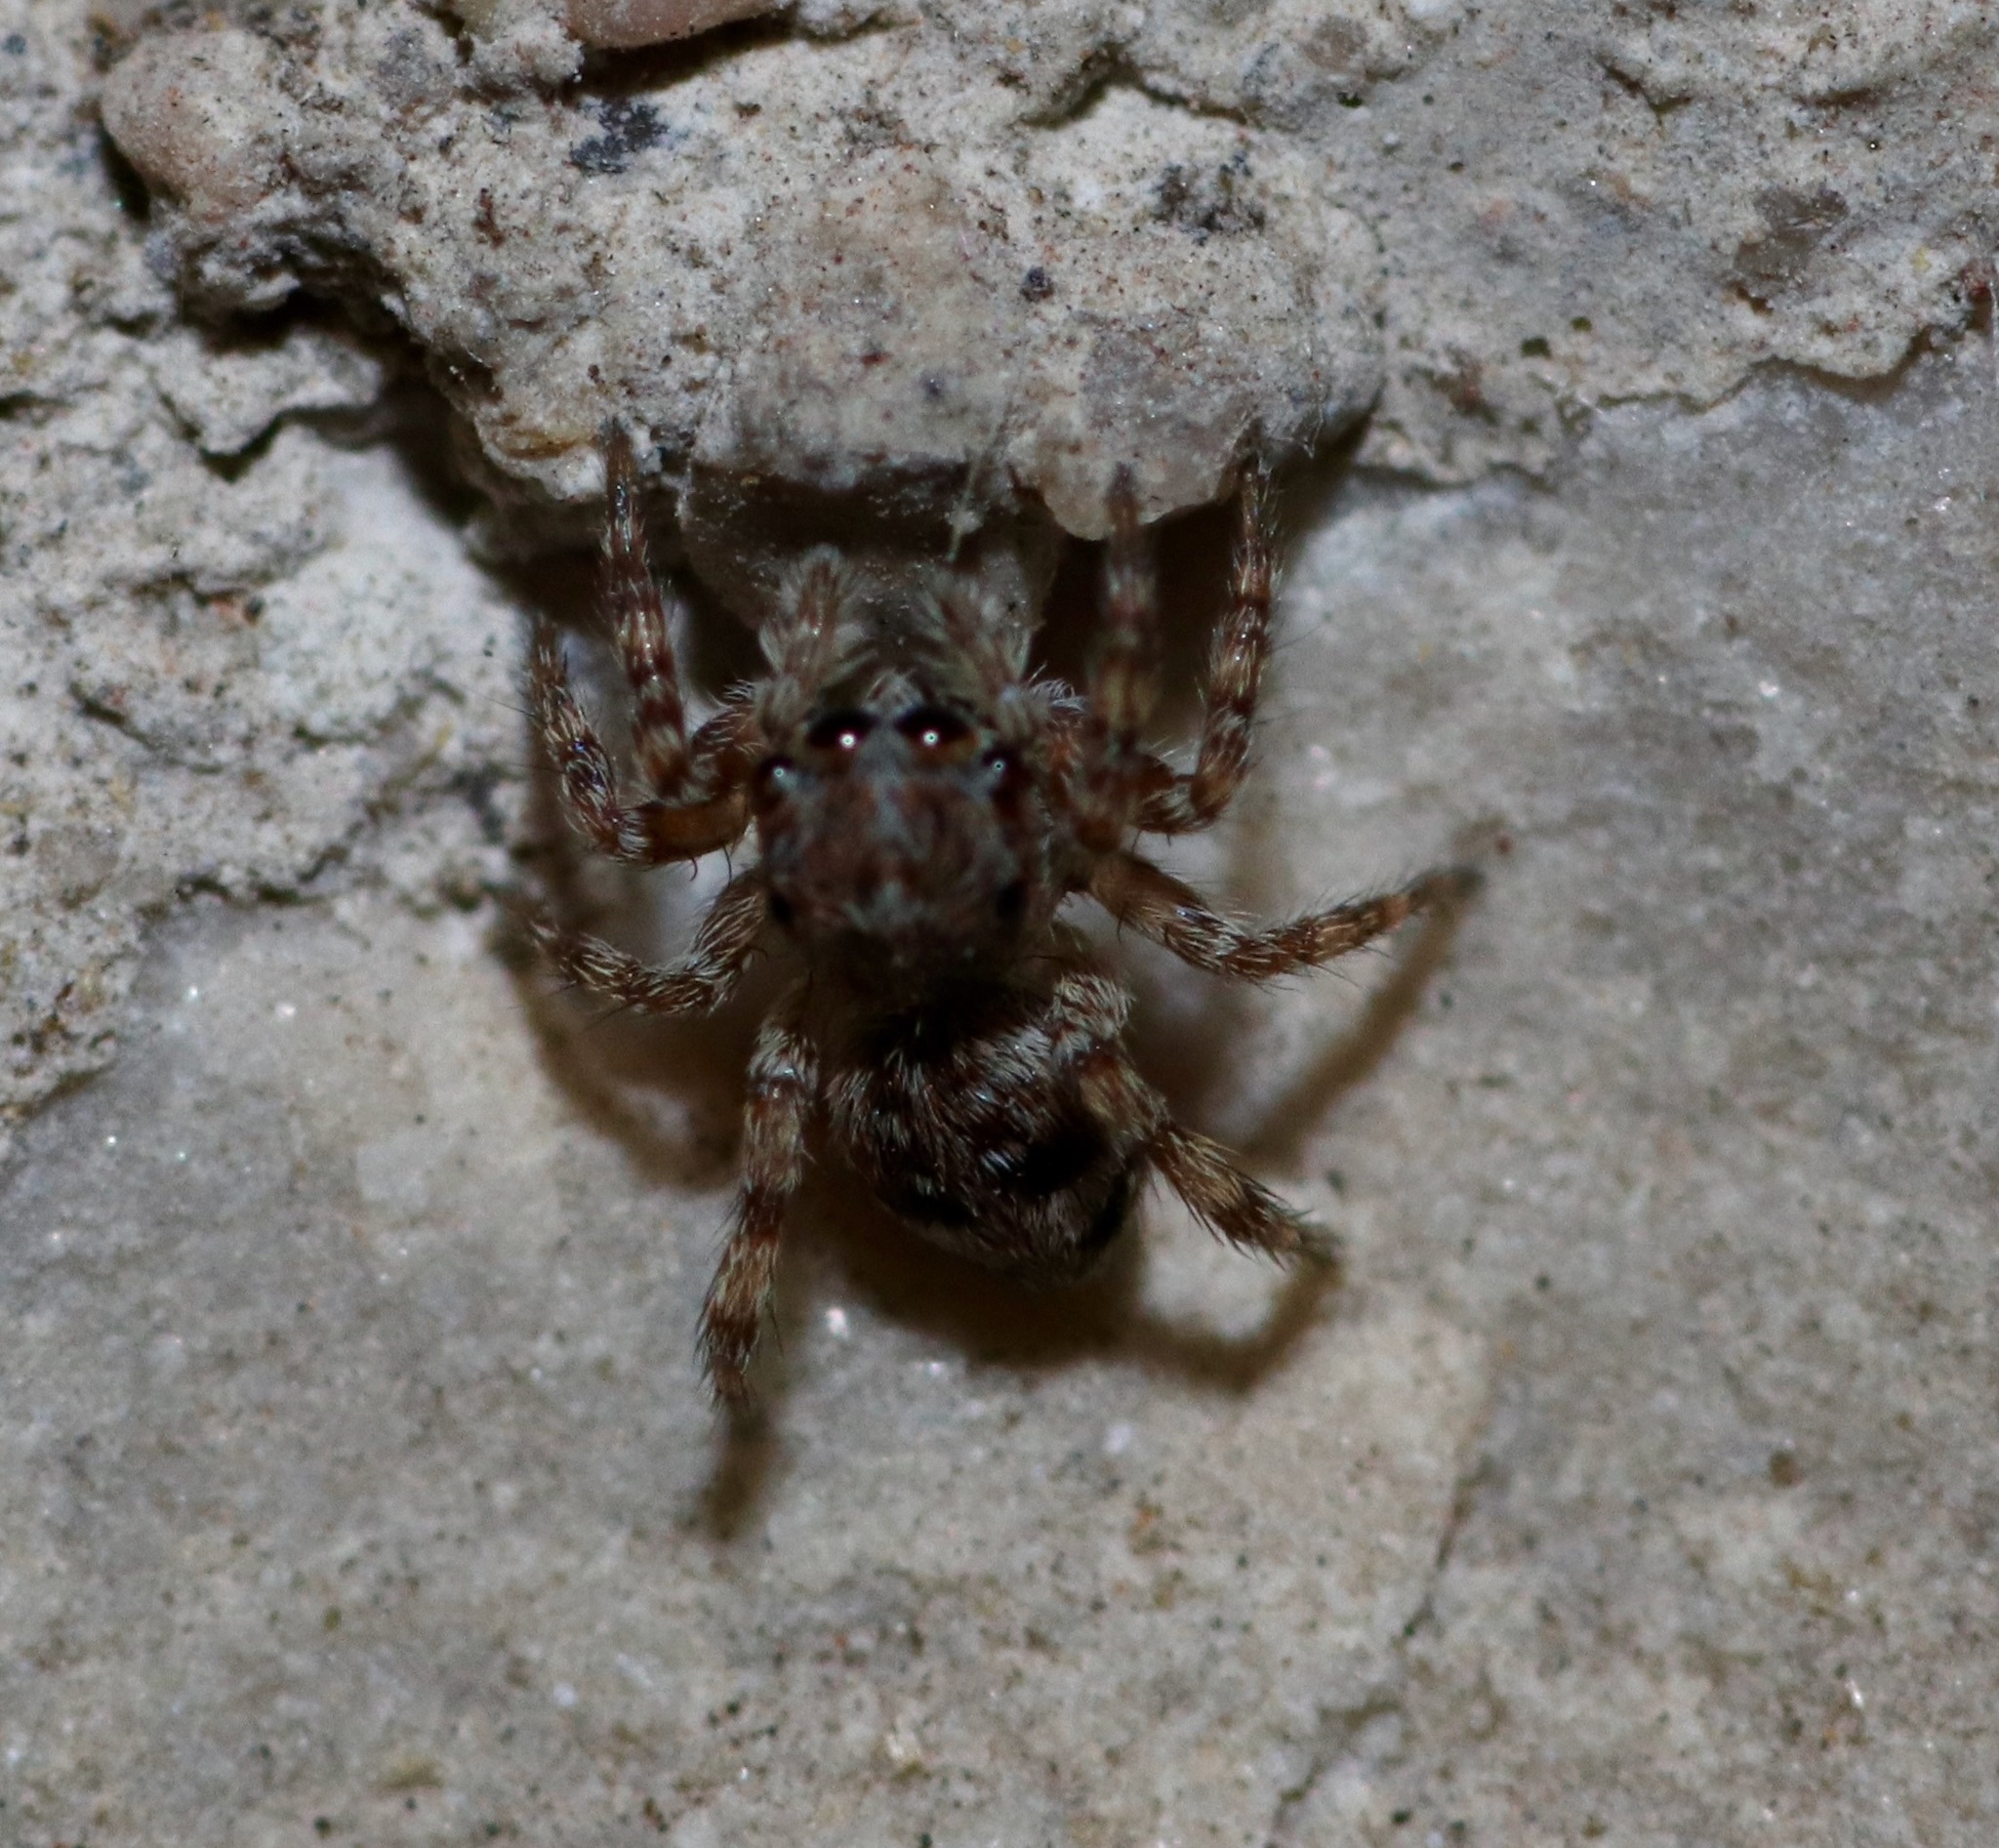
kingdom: Animalia
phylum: Arthropoda
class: Arachnida
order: Araneae
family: Salticidae
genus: Attulus
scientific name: Attulus fasciger
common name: Asiatic wall jumping spider
